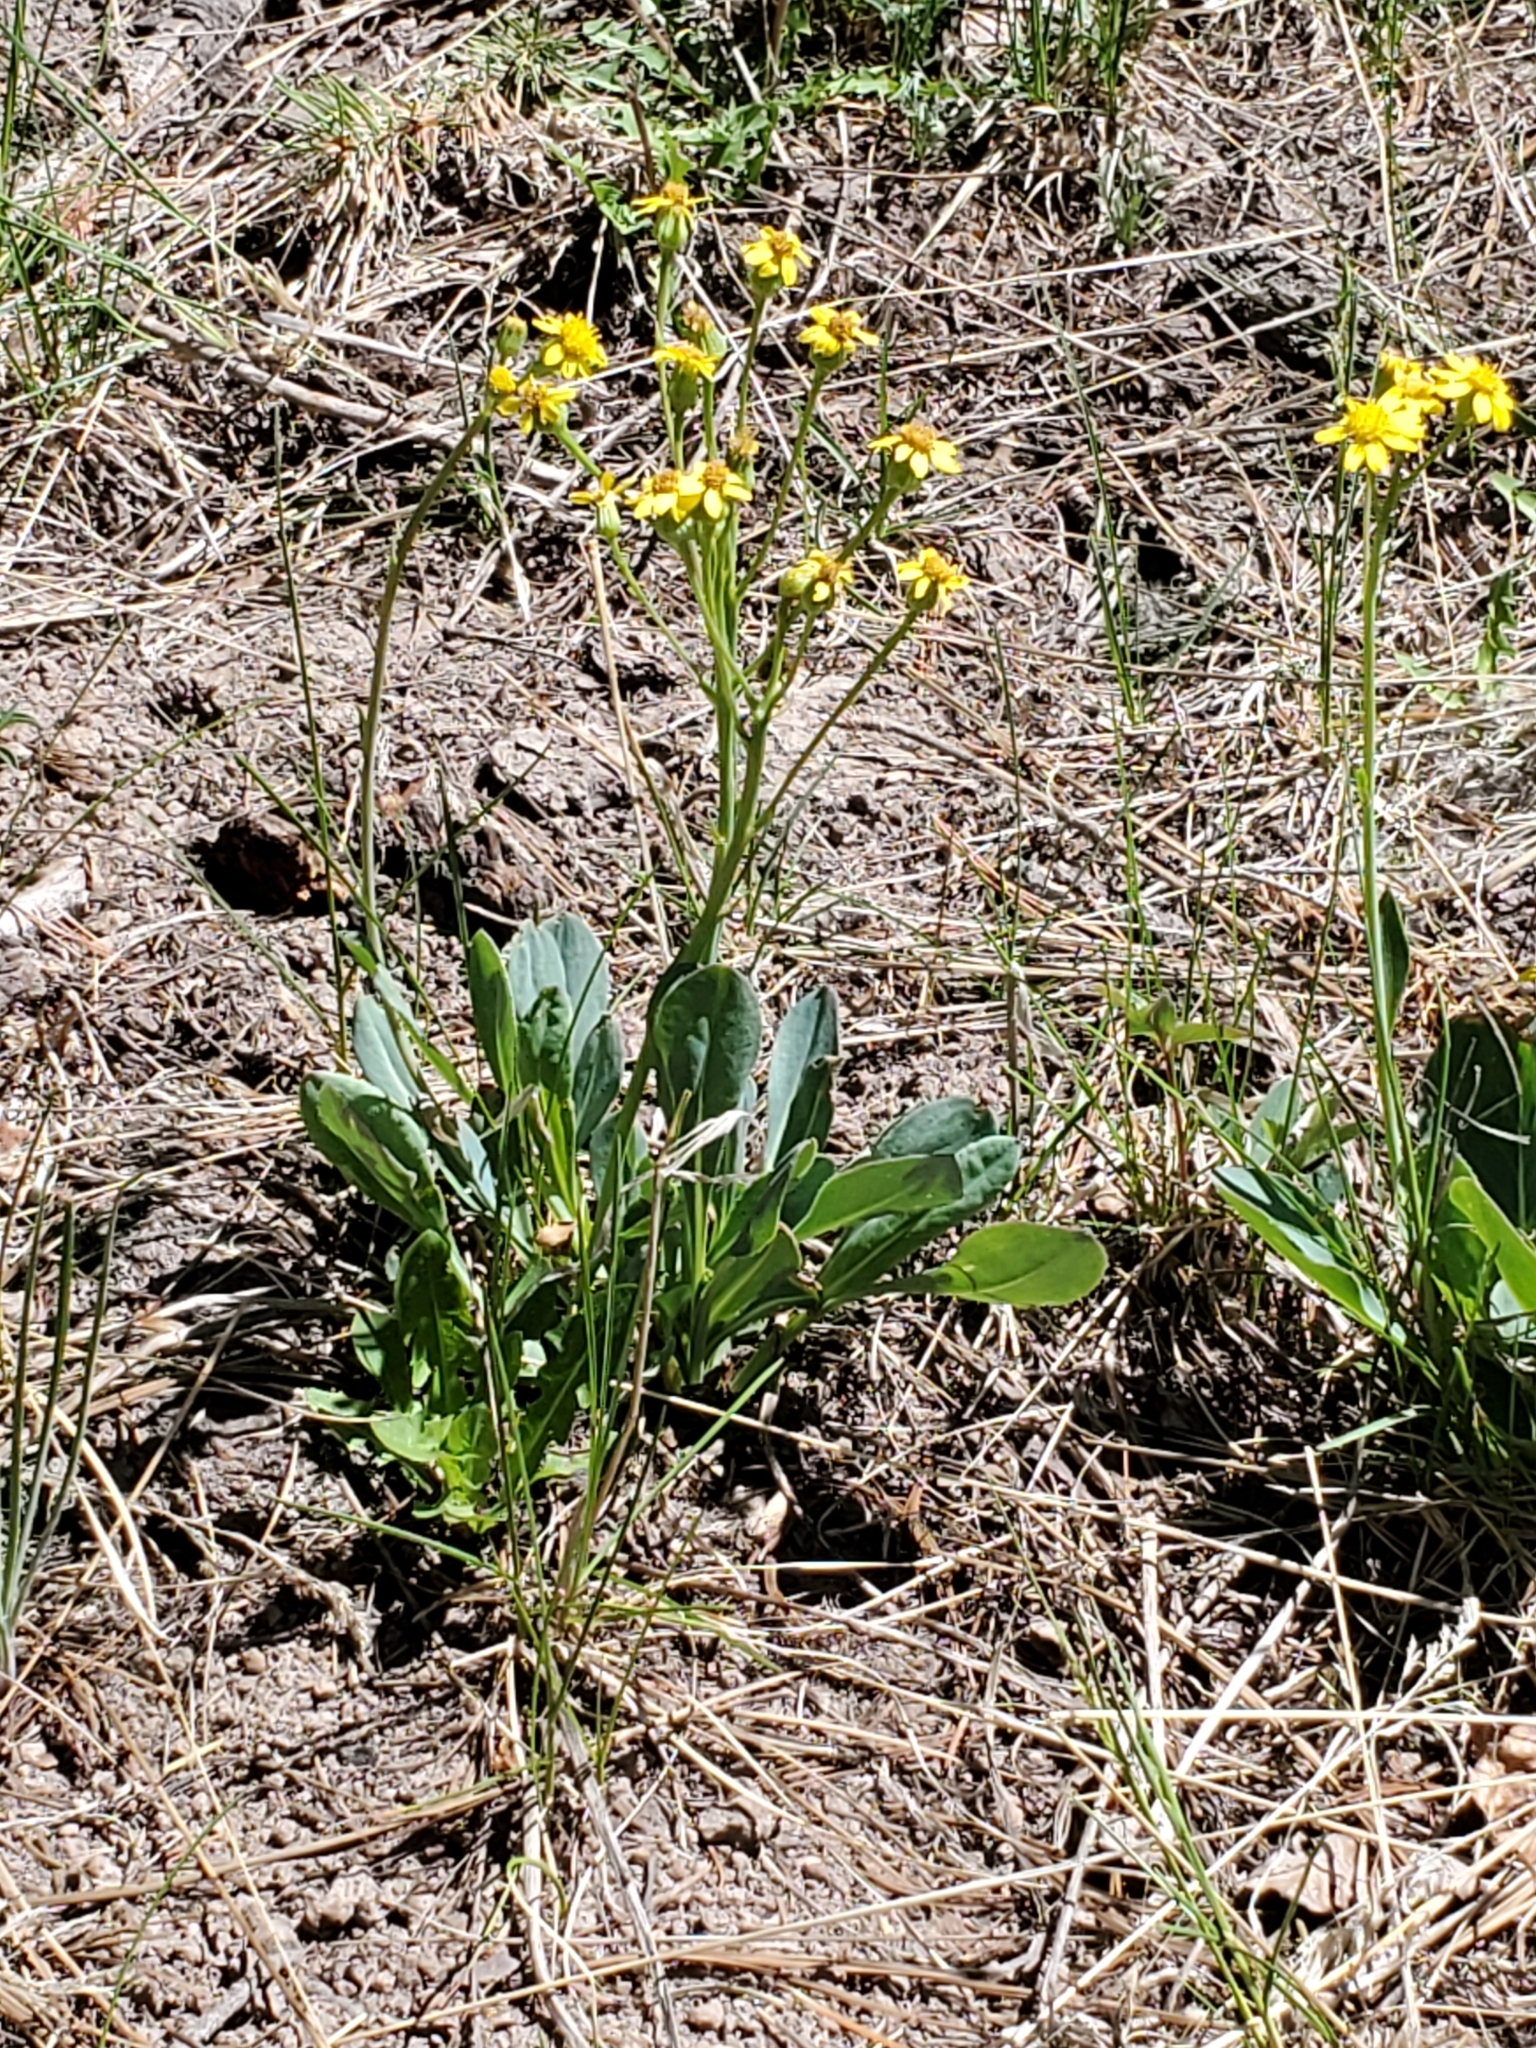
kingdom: Plantae
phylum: Tracheophyta
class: Magnoliopsida
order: Asterales
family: Asteraceae
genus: Senecio
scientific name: Senecio wootonii
